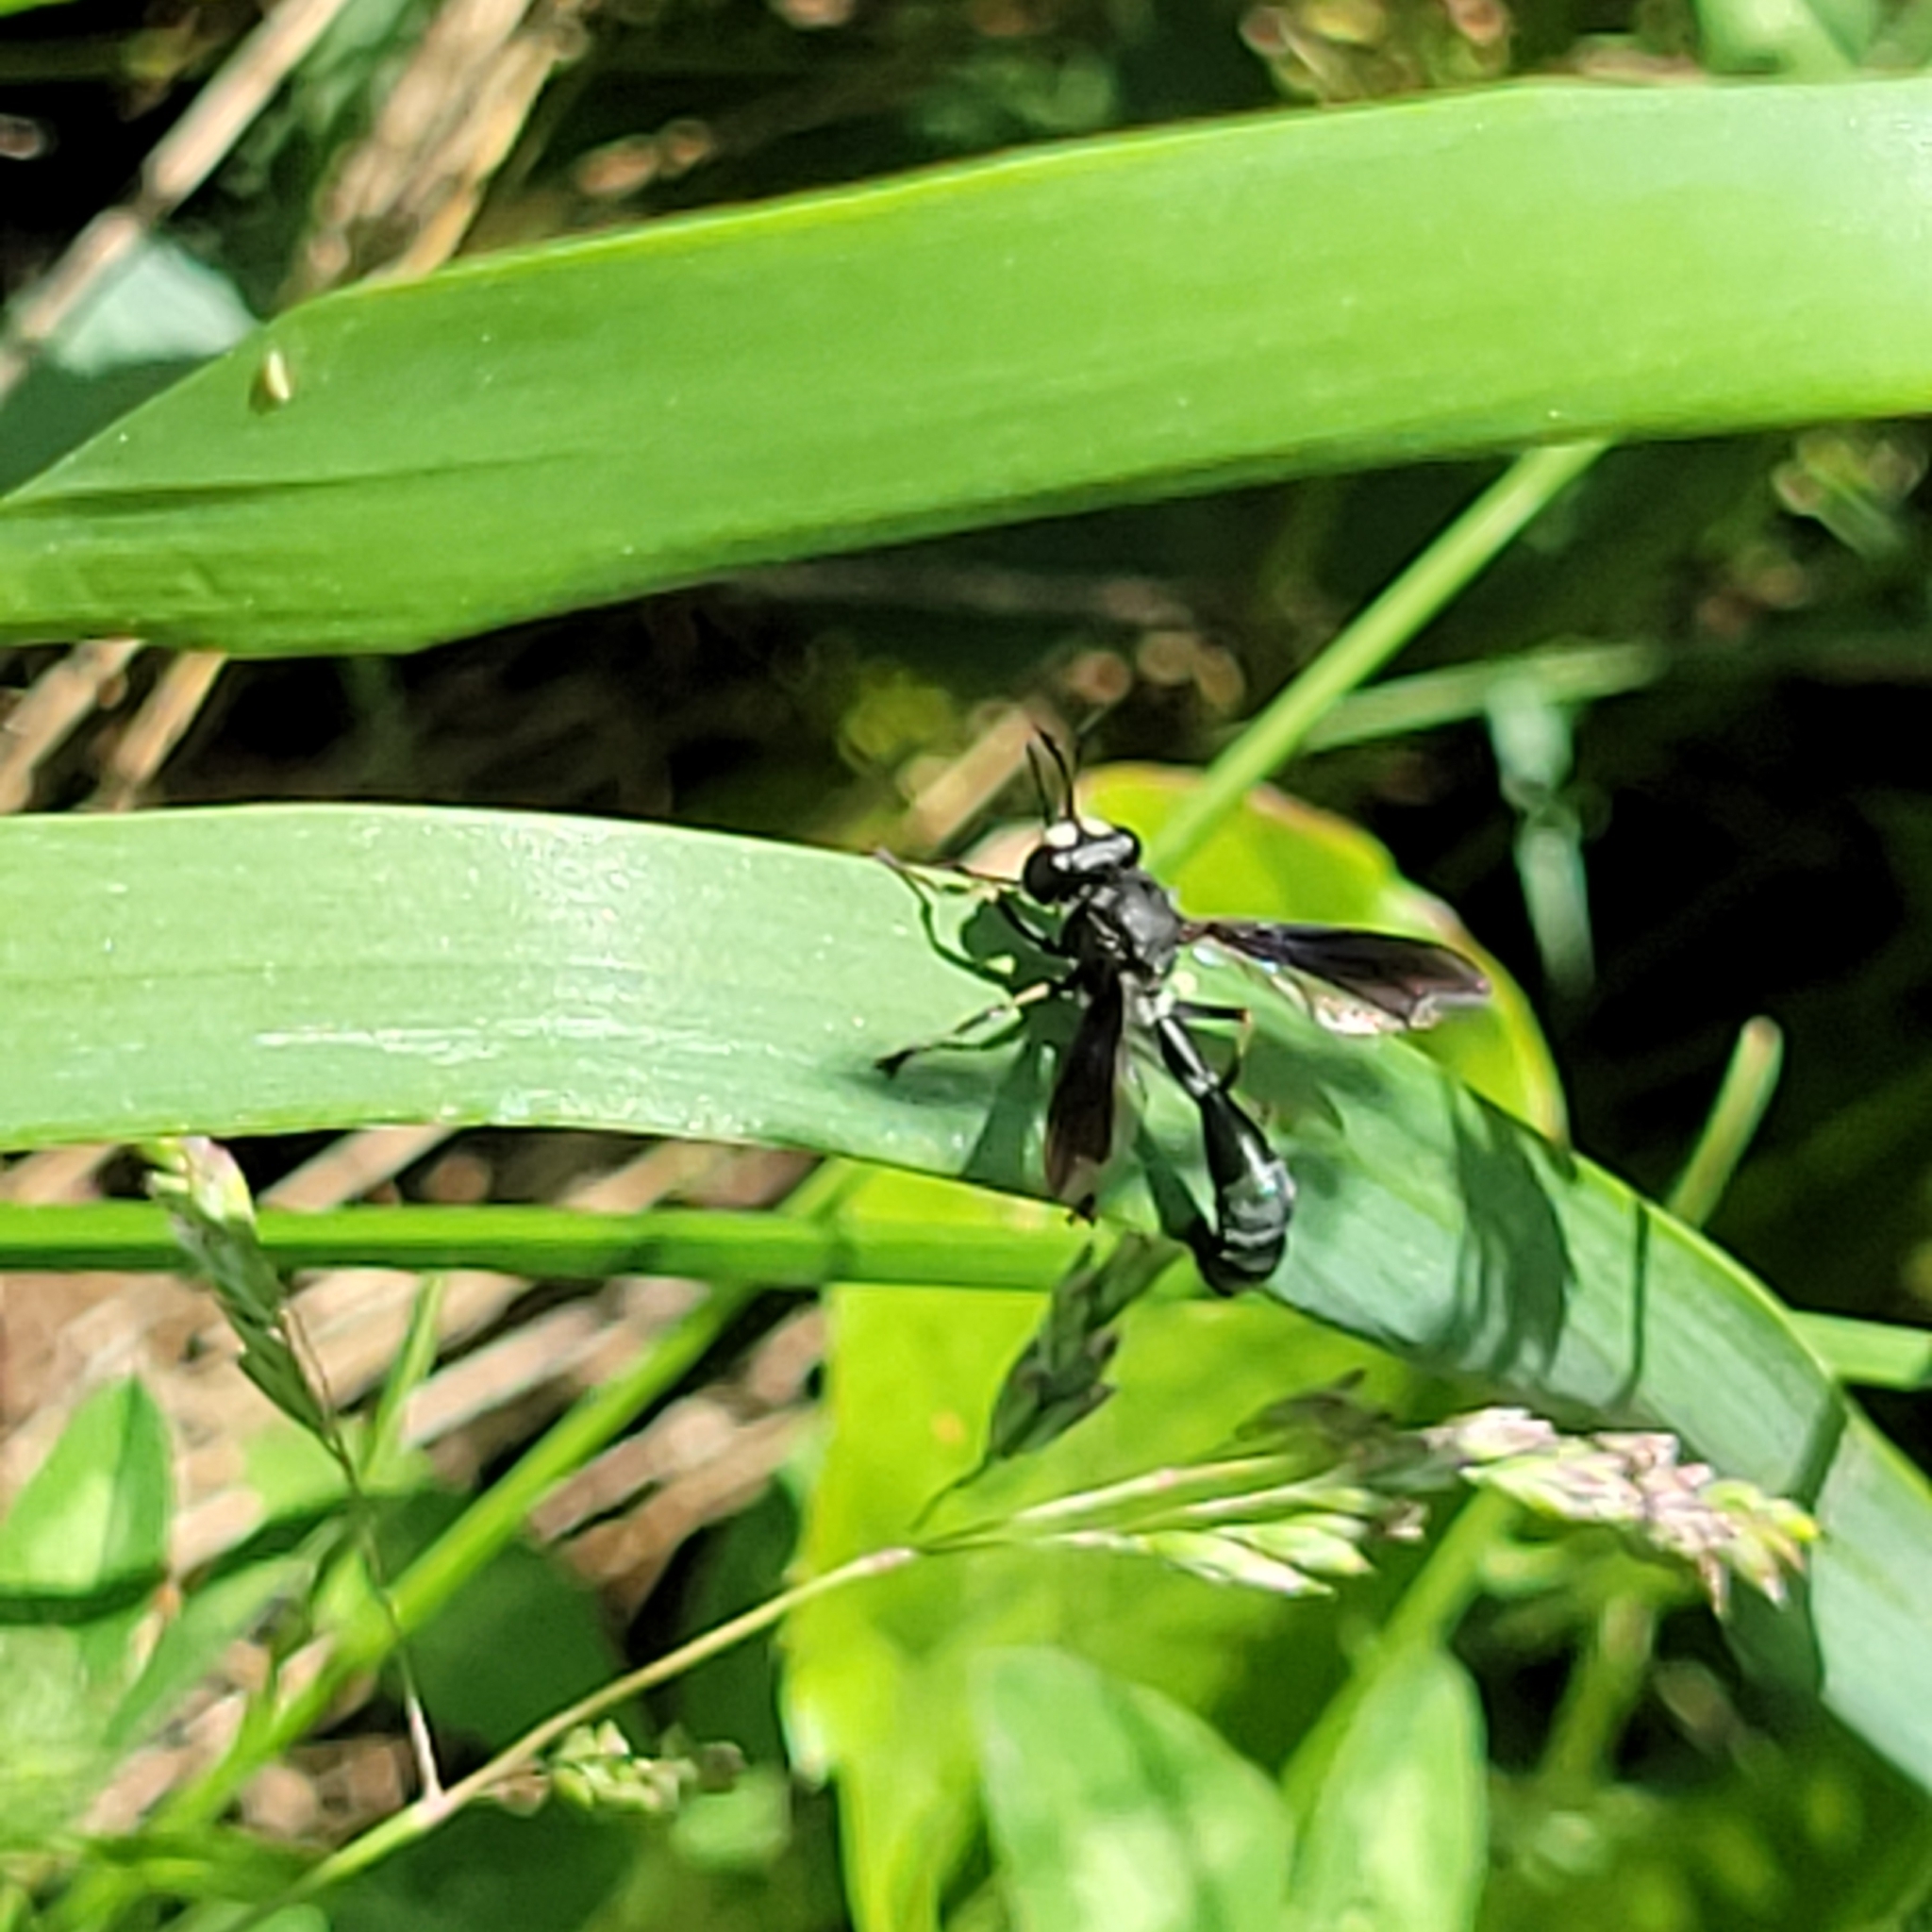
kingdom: Animalia
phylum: Arthropoda
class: Insecta
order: Diptera
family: Conopidae
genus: Physocephala
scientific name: Physocephala tibialis
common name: Common eastern physocephala
